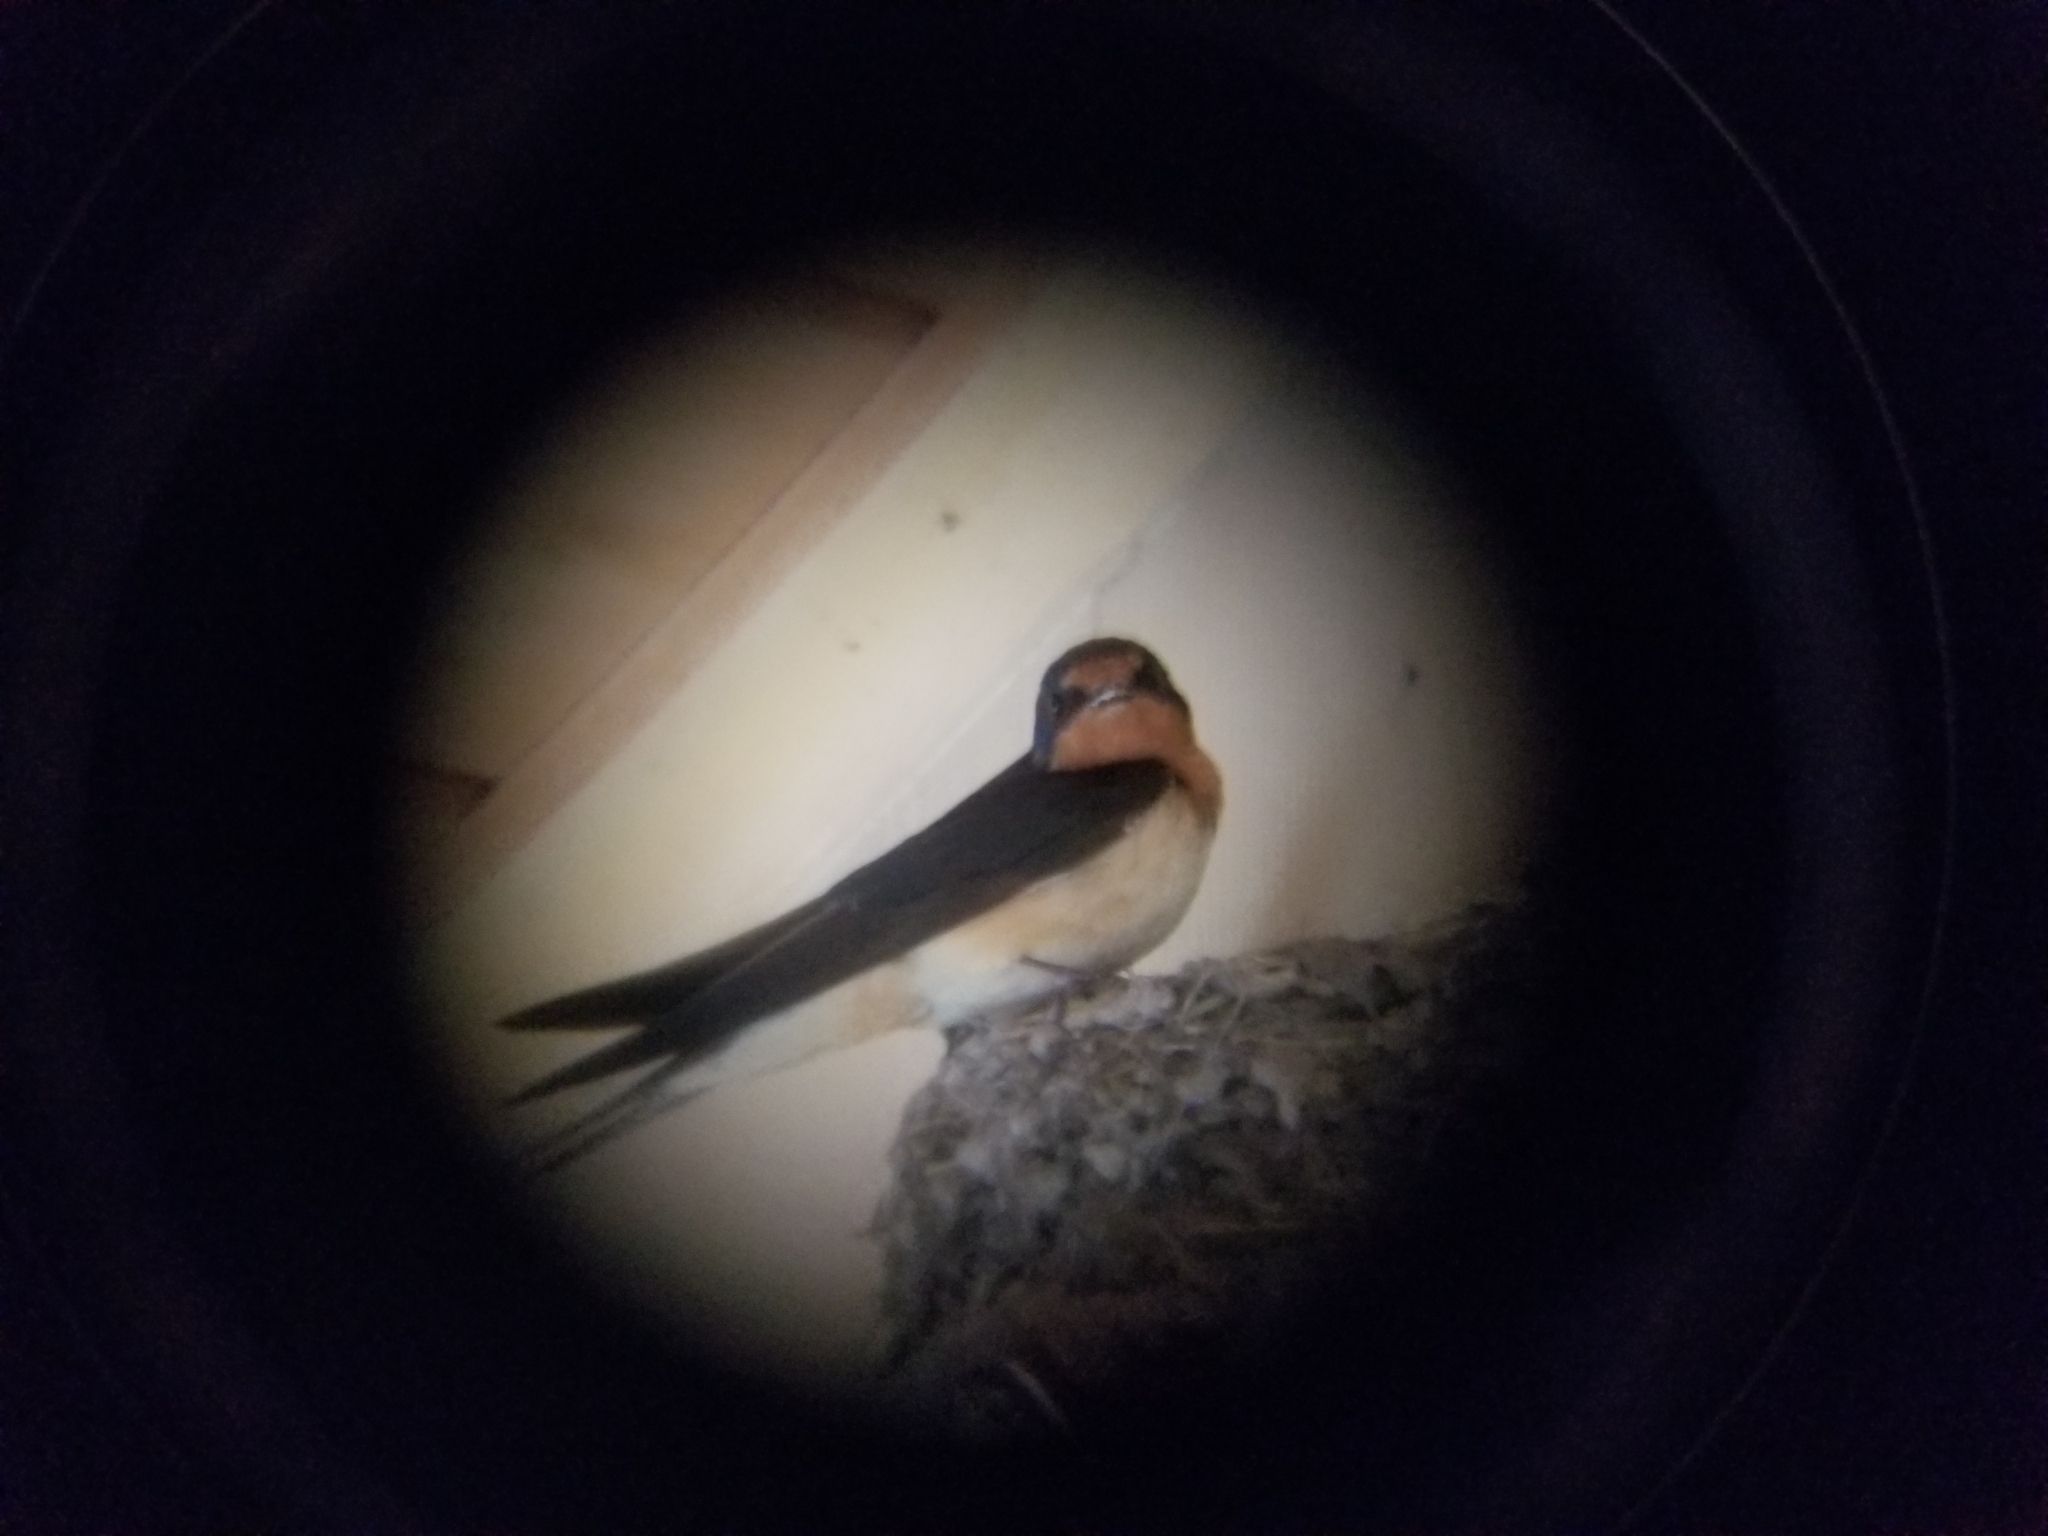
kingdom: Animalia
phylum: Chordata
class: Aves
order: Passeriformes
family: Hirundinidae
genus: Hirundo
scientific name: Hirundo rustica
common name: Barn swallow
